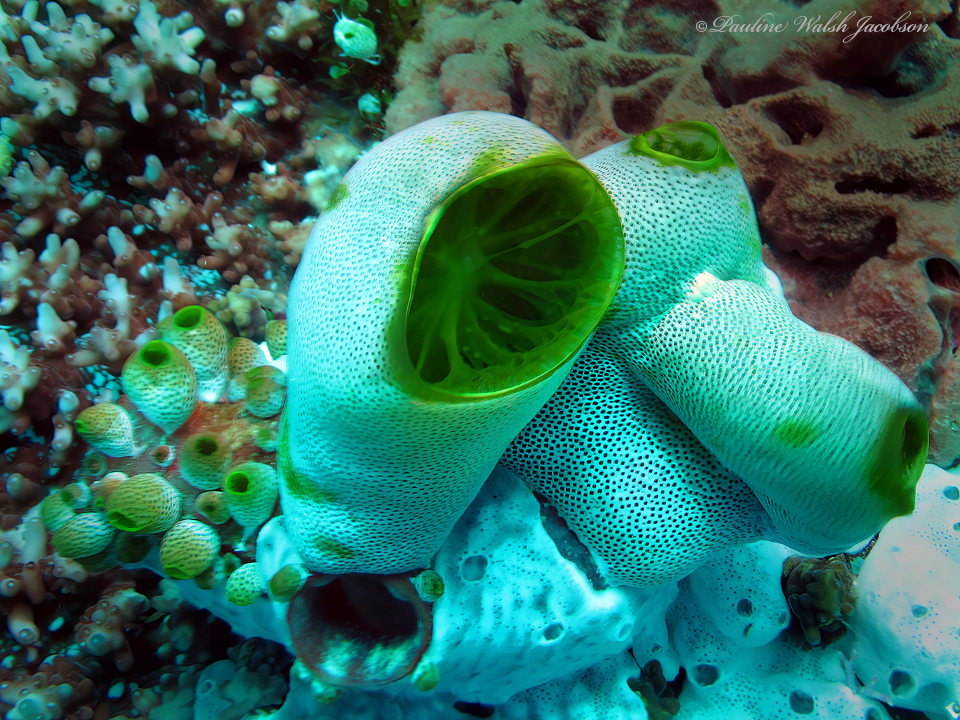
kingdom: Animalia
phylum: Chordata
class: Ascidiacea
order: Aplousobranchia
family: Didemnidae
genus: Didemnum
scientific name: Didemnum molle
